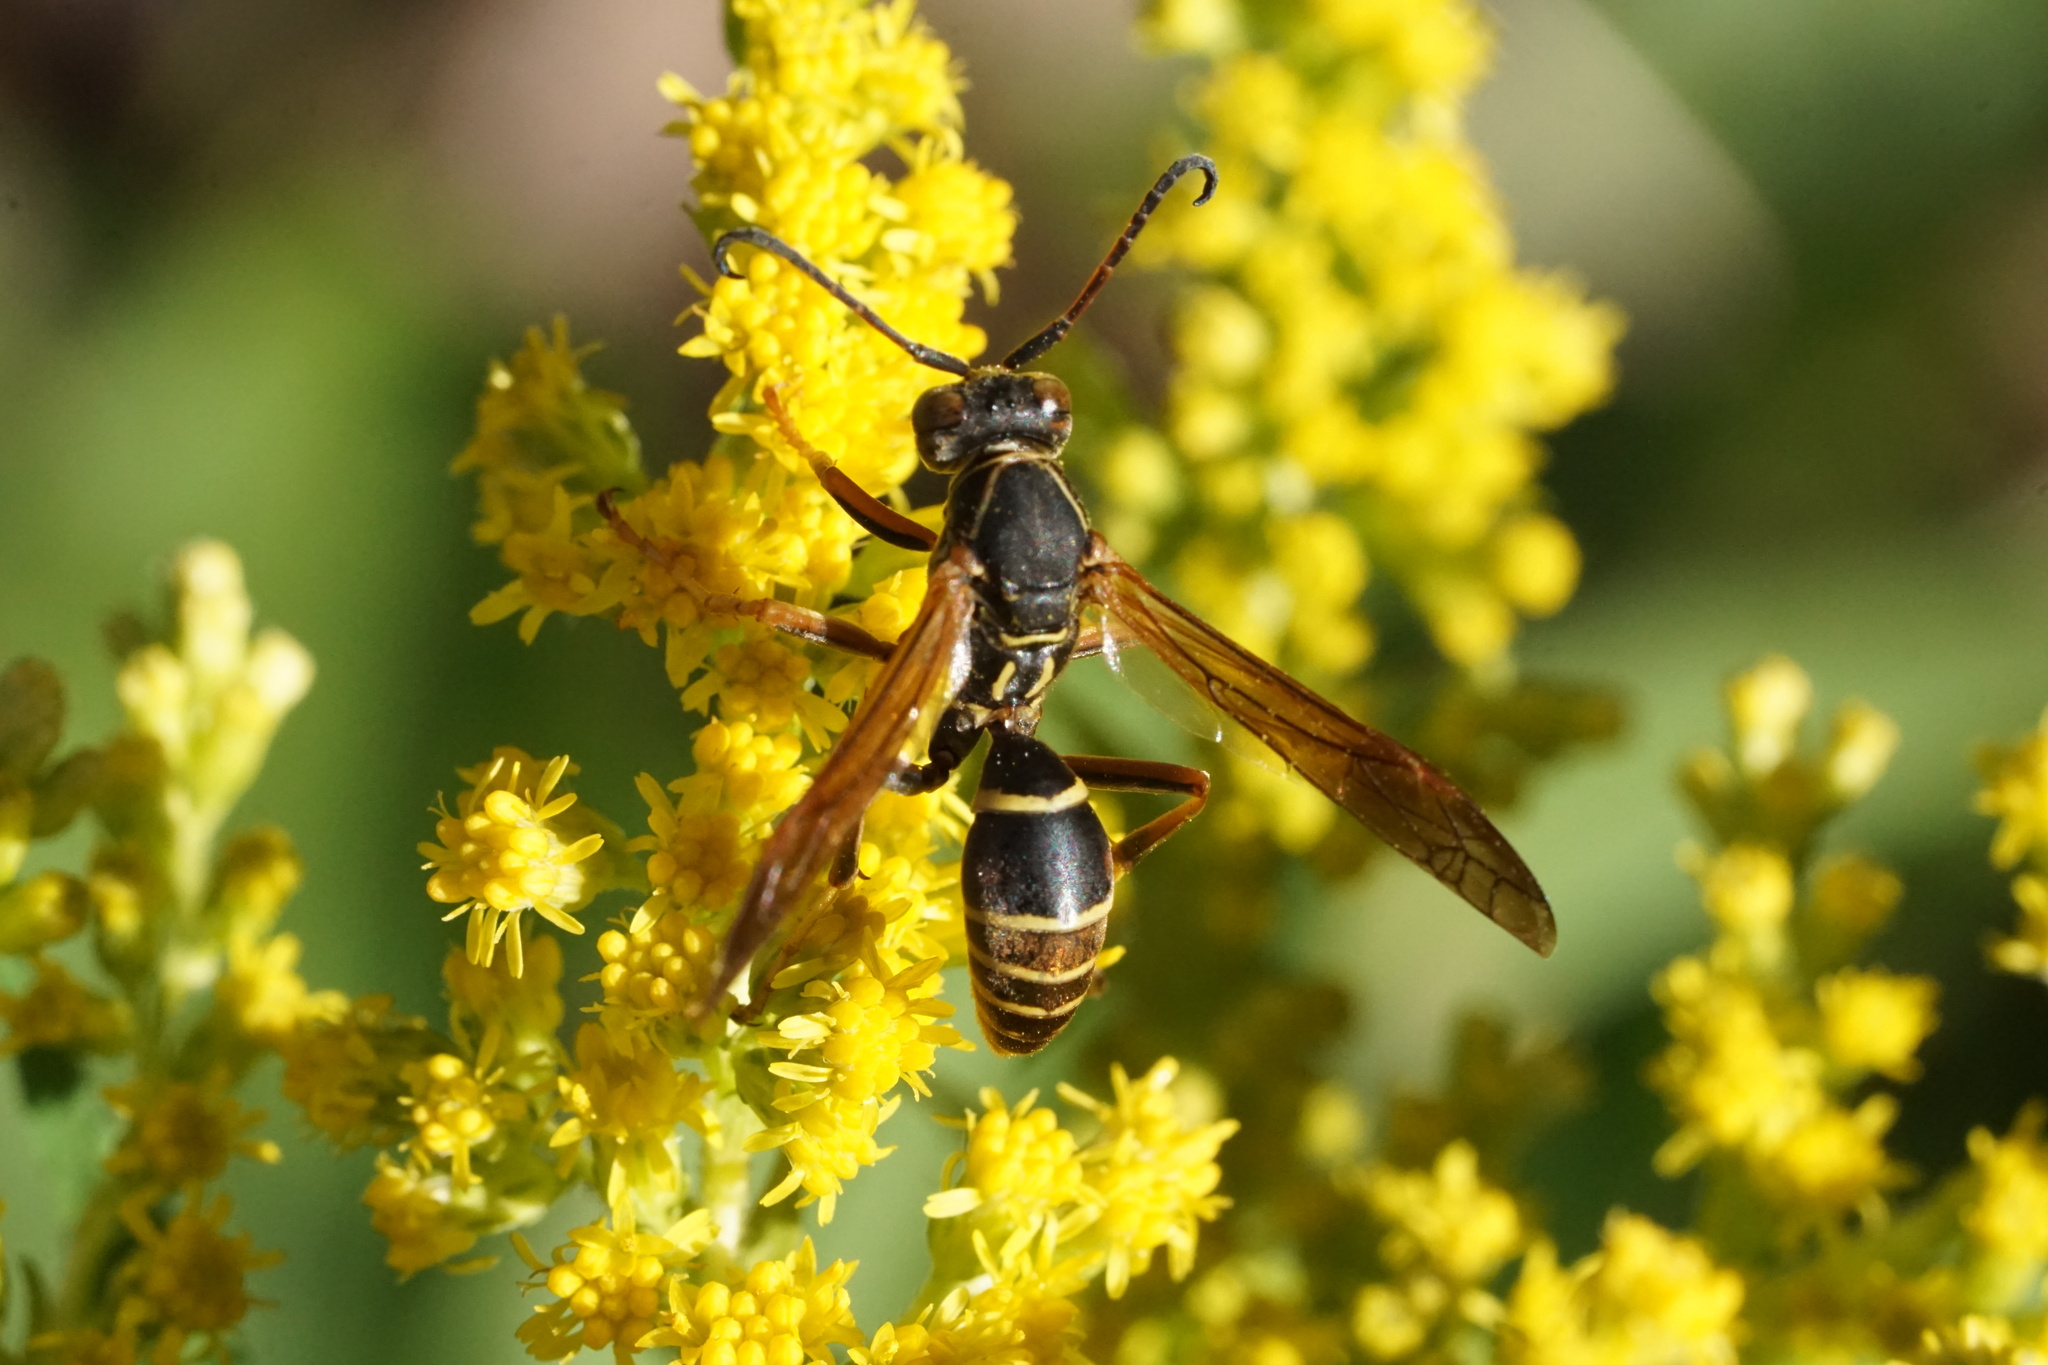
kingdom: Animalia
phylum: Arthropoda
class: Insecta
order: Hymenoptera
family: Eumenidae
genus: Polistes
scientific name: Polistes fuscatus
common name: Dark paper wasp
